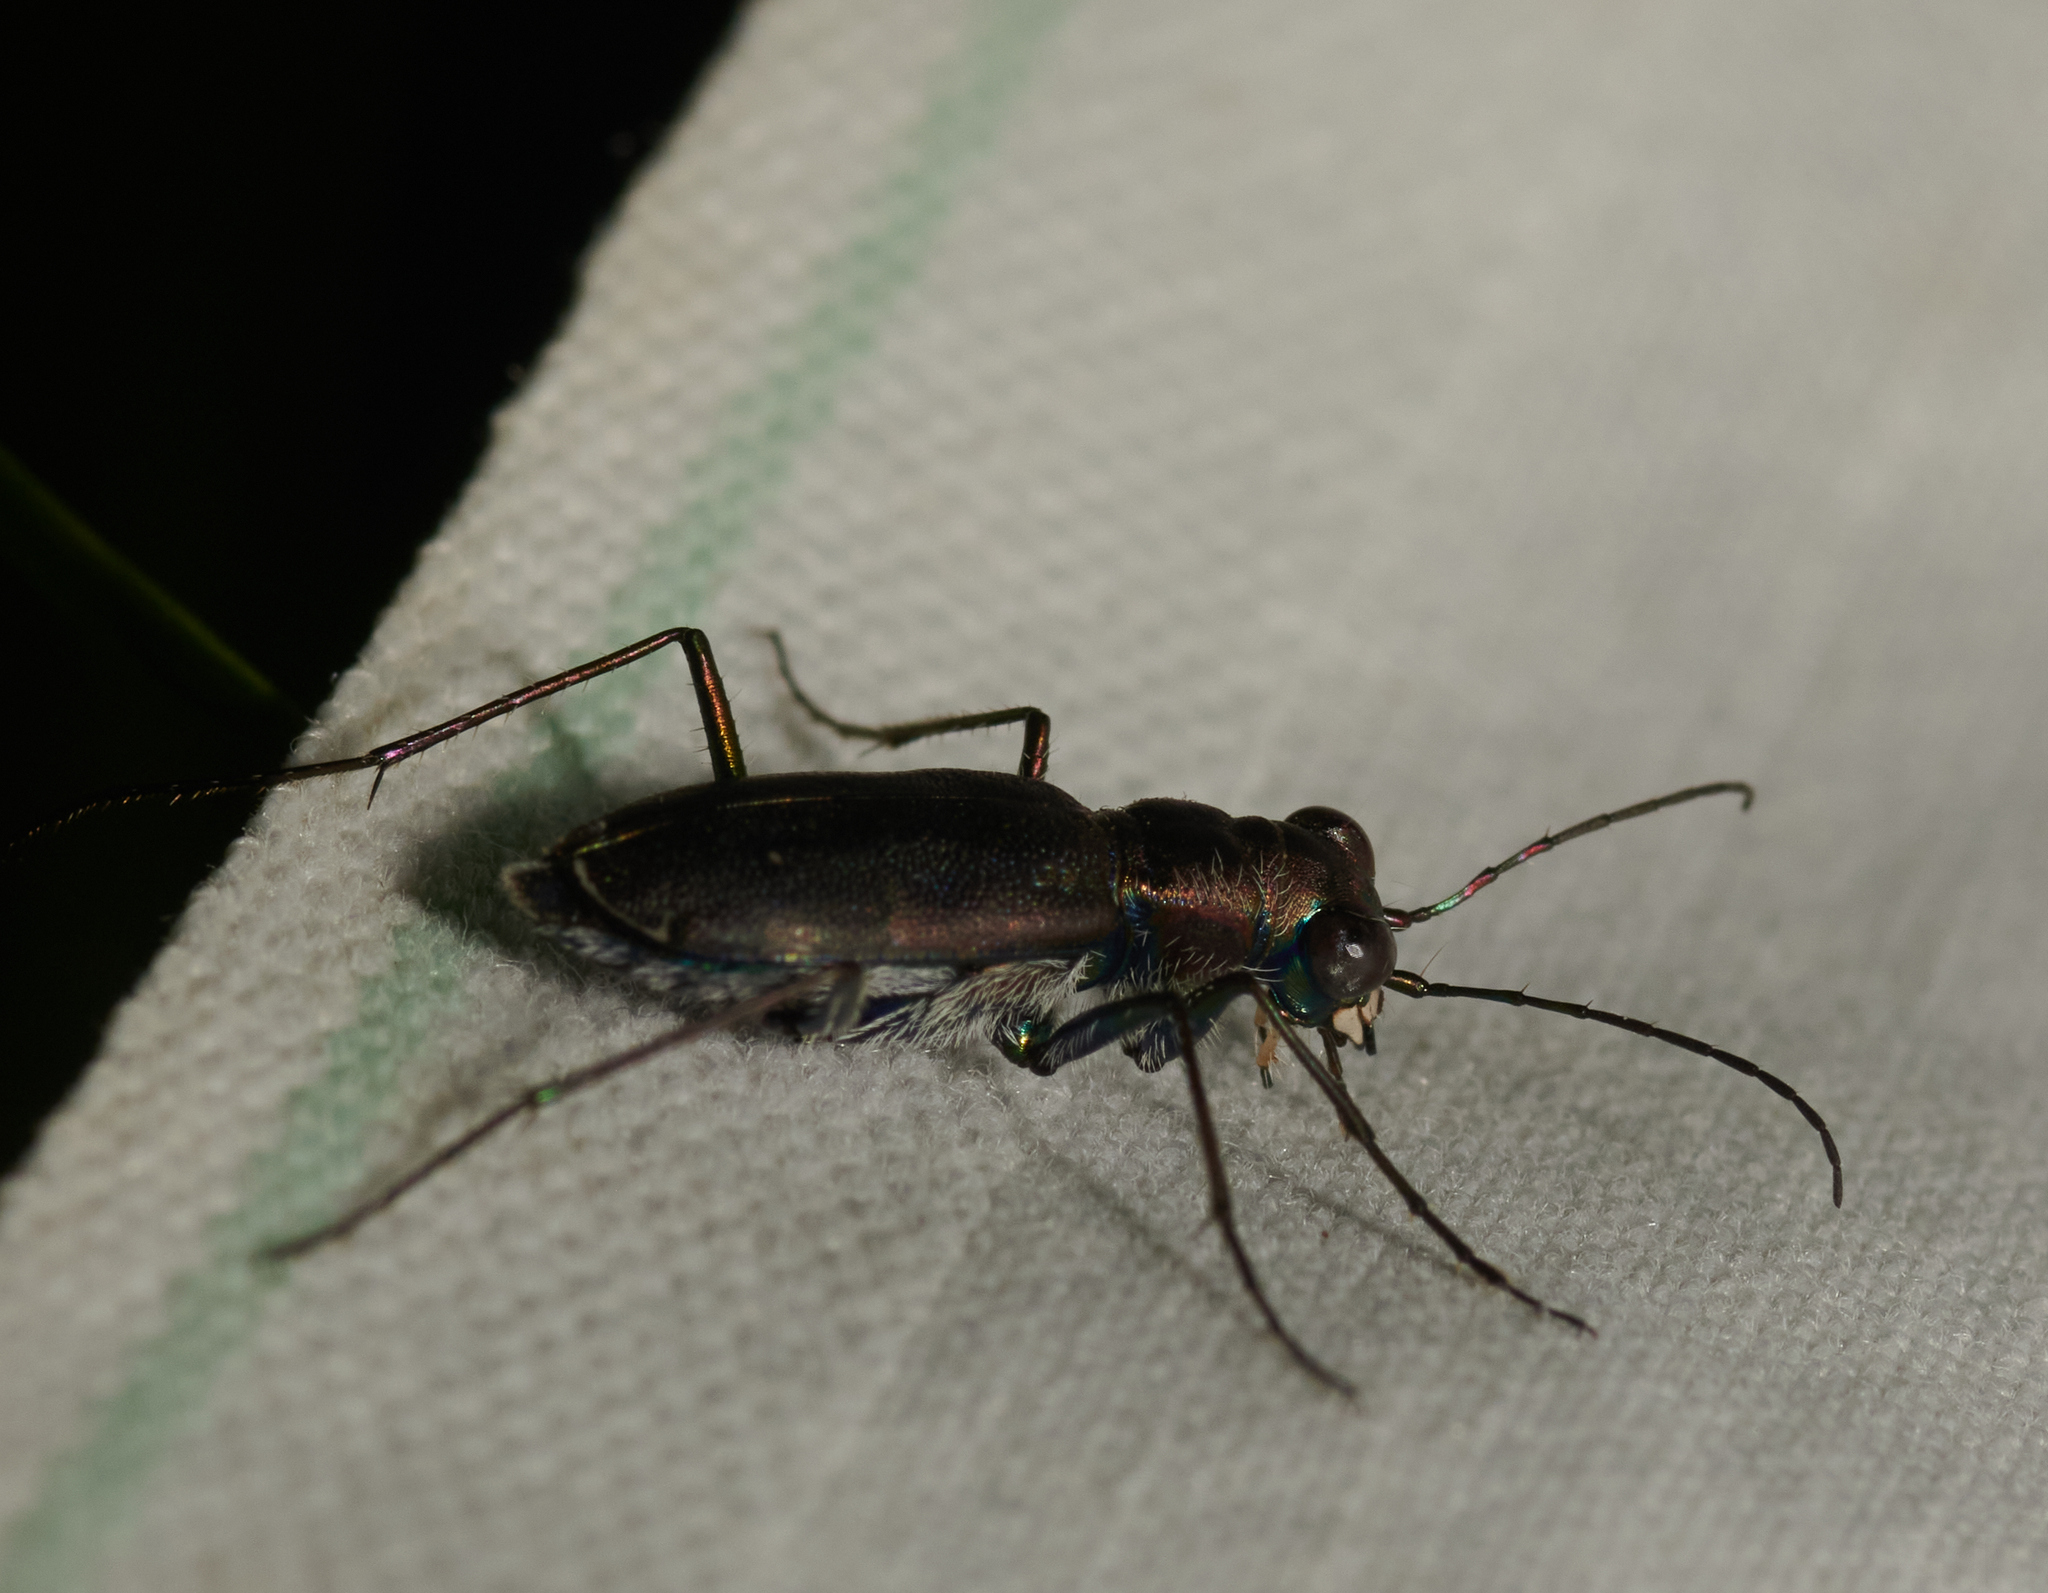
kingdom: Animalia
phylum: Arthropoda
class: Insecta
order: Coleoptera
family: Carabidae
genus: Cicindela
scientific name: Cicindela punctulata
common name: Punctured tiger beetle
